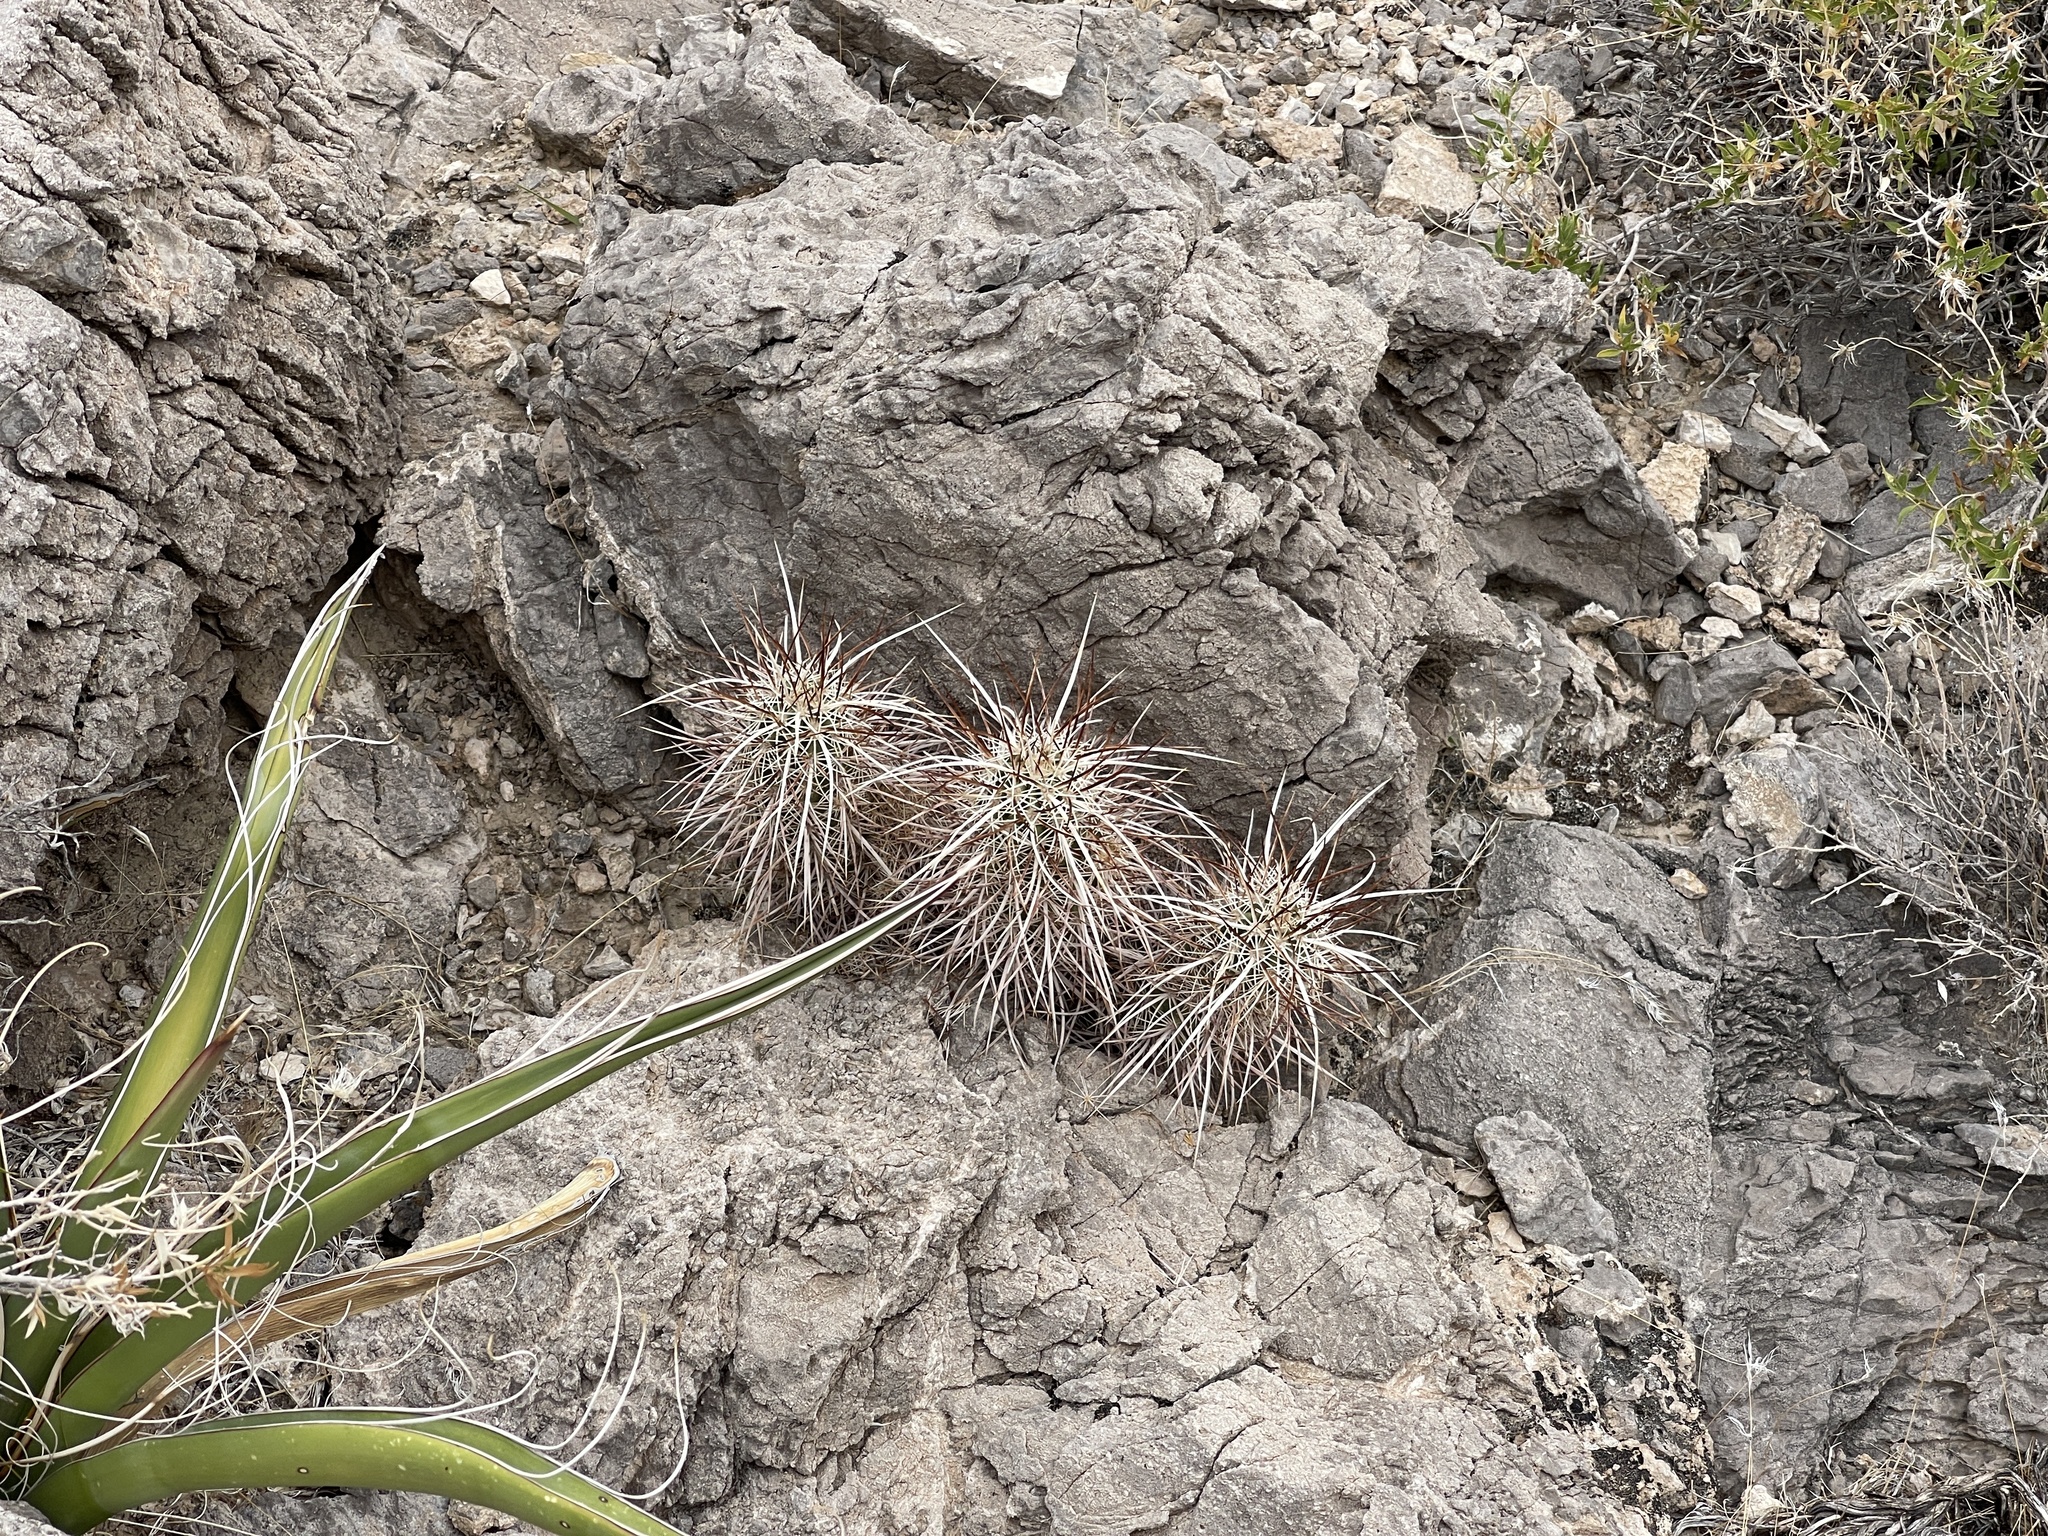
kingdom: Plantae
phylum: Tracheophyta
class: Magnoliopsida
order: Caryophyllales
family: Cactaceae
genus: Echinocereus
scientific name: Echinocereus engelmannii
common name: Engelmann's hedgehog cactus
